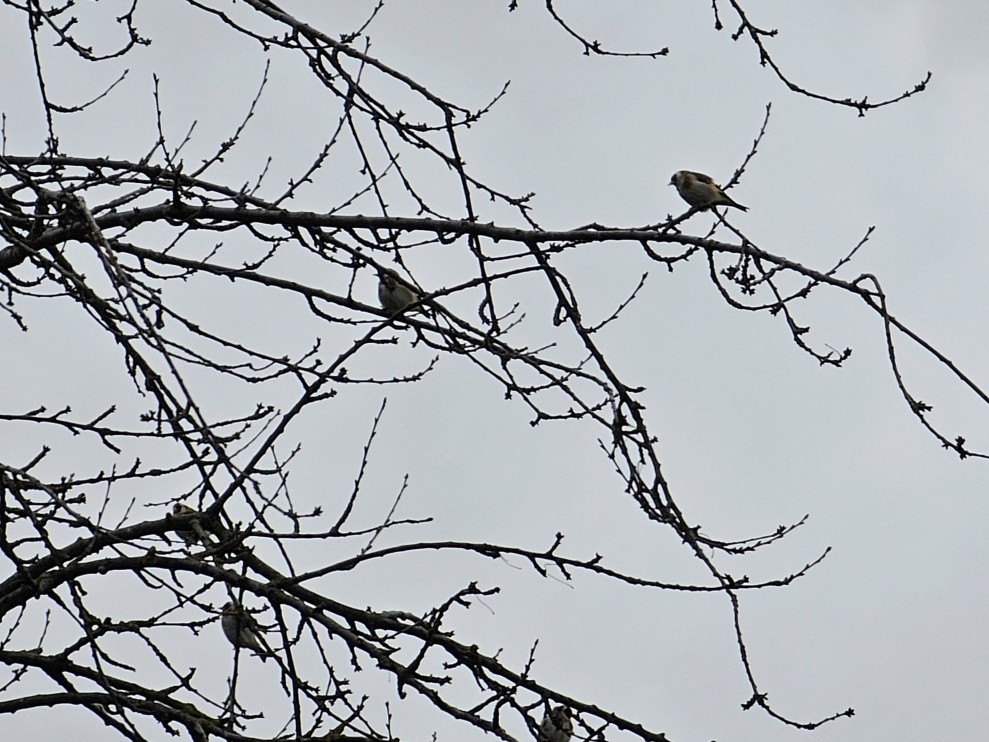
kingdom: Animalia
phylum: Chordata
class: Aves
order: Passeriformes
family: Fringillidae
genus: Carduelis
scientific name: Carduelis carduelis
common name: European goldfinch
